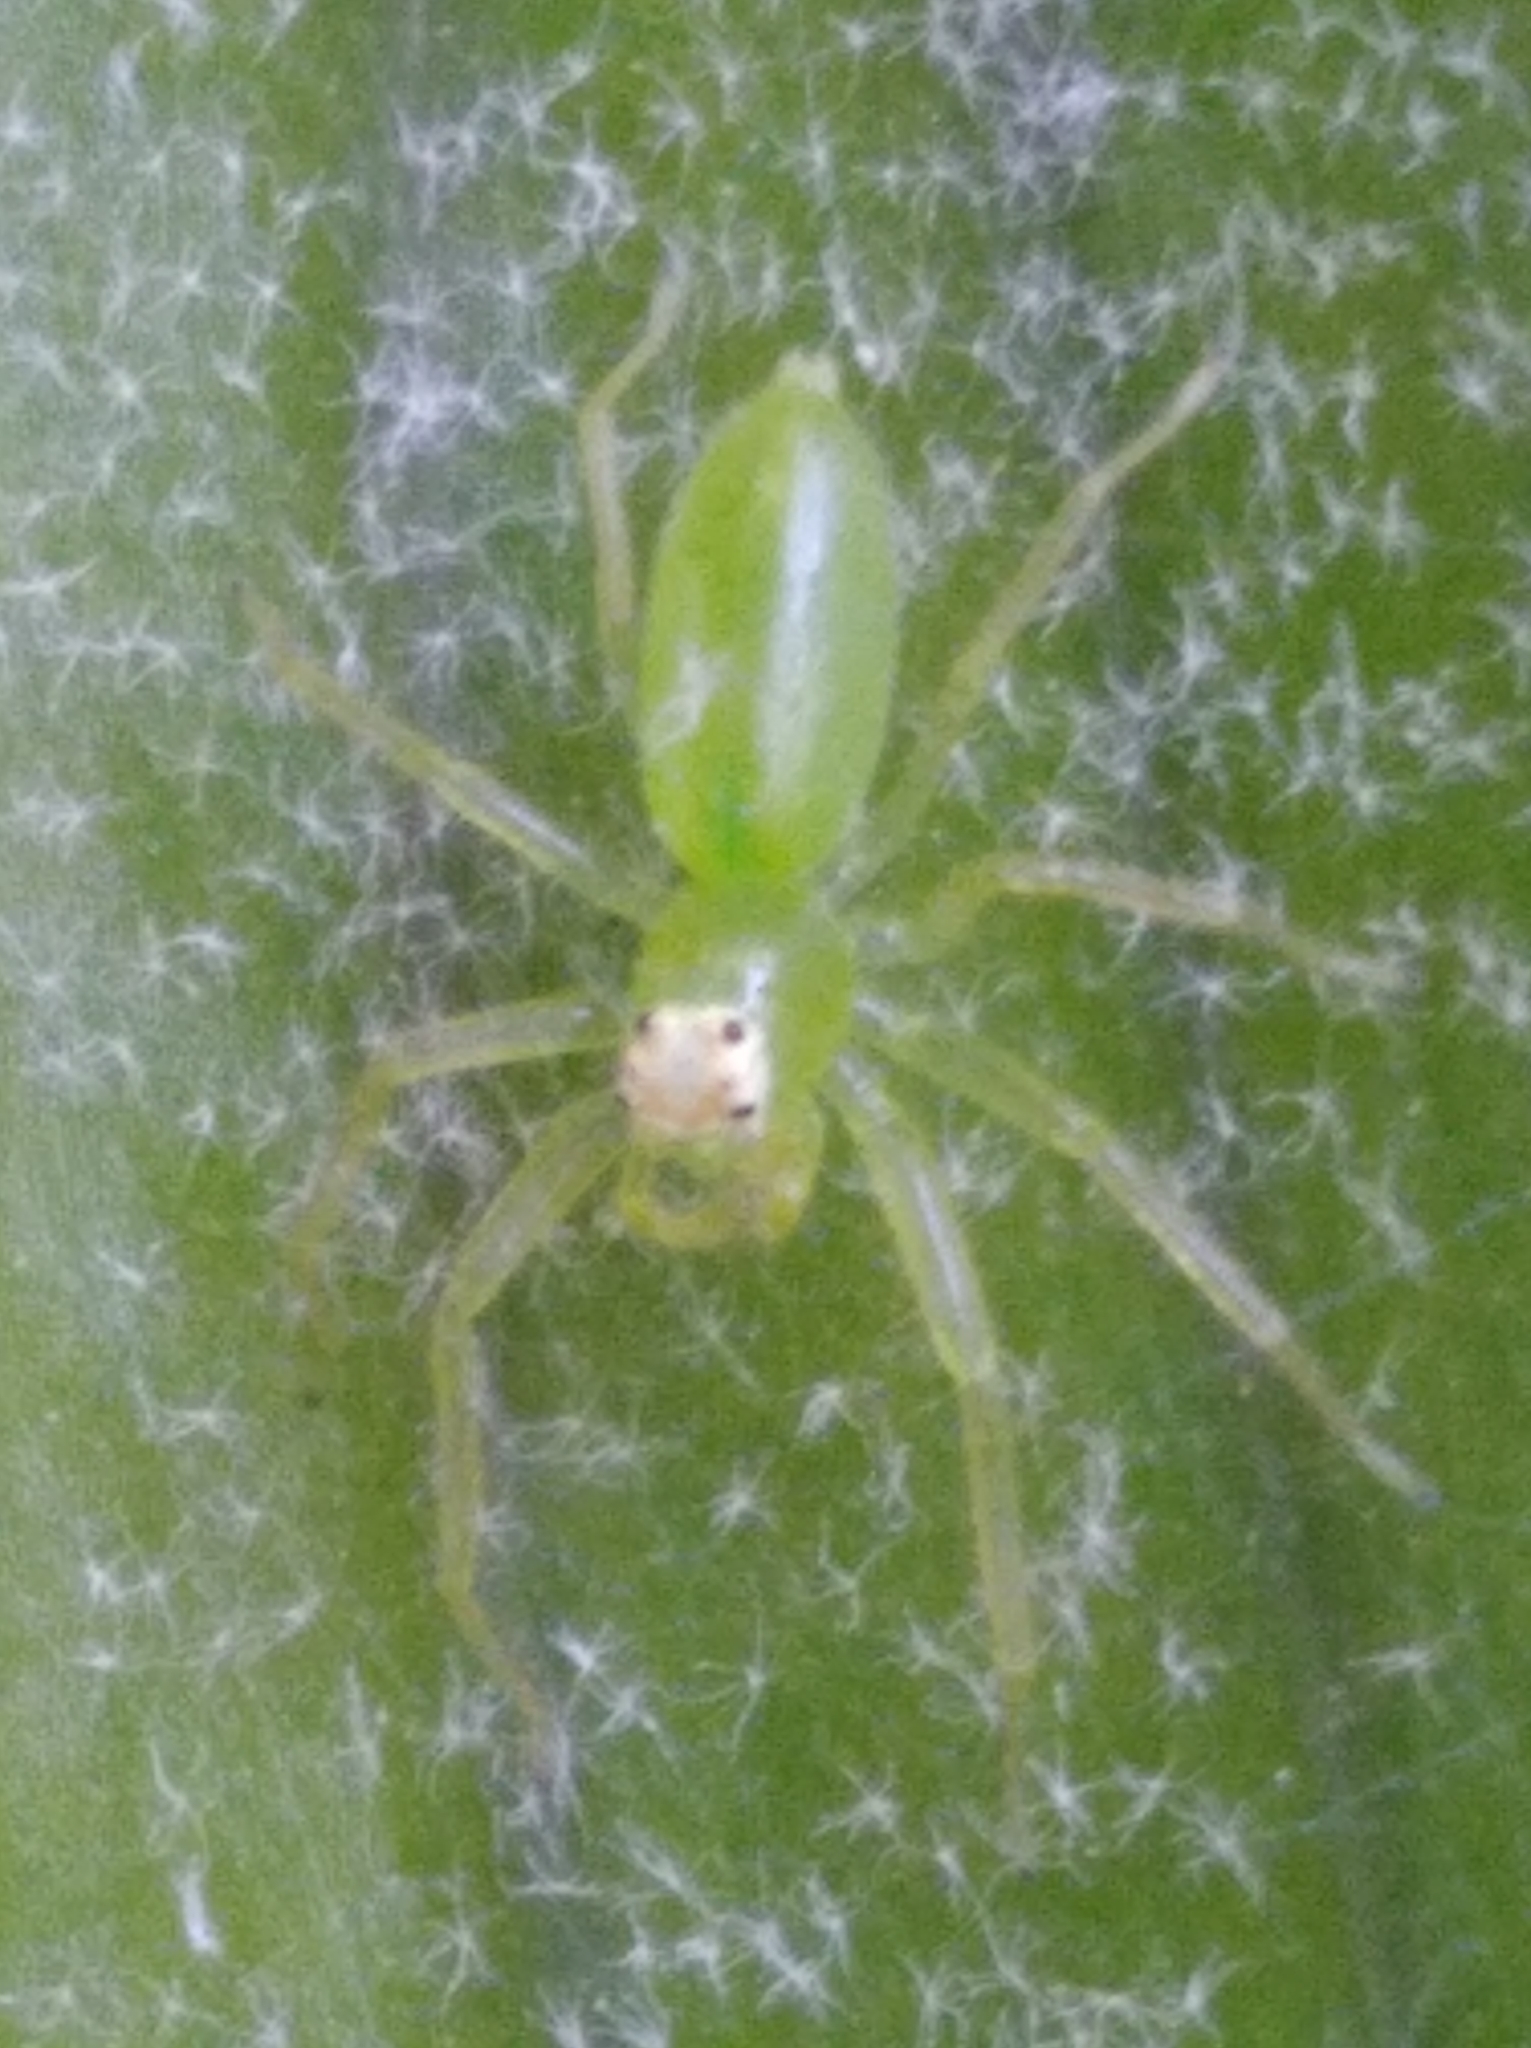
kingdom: Animalia
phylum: Arthropoda
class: Arachnida
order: Araneae
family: Salticidae
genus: Lyssomanes
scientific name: Lyssomanes
